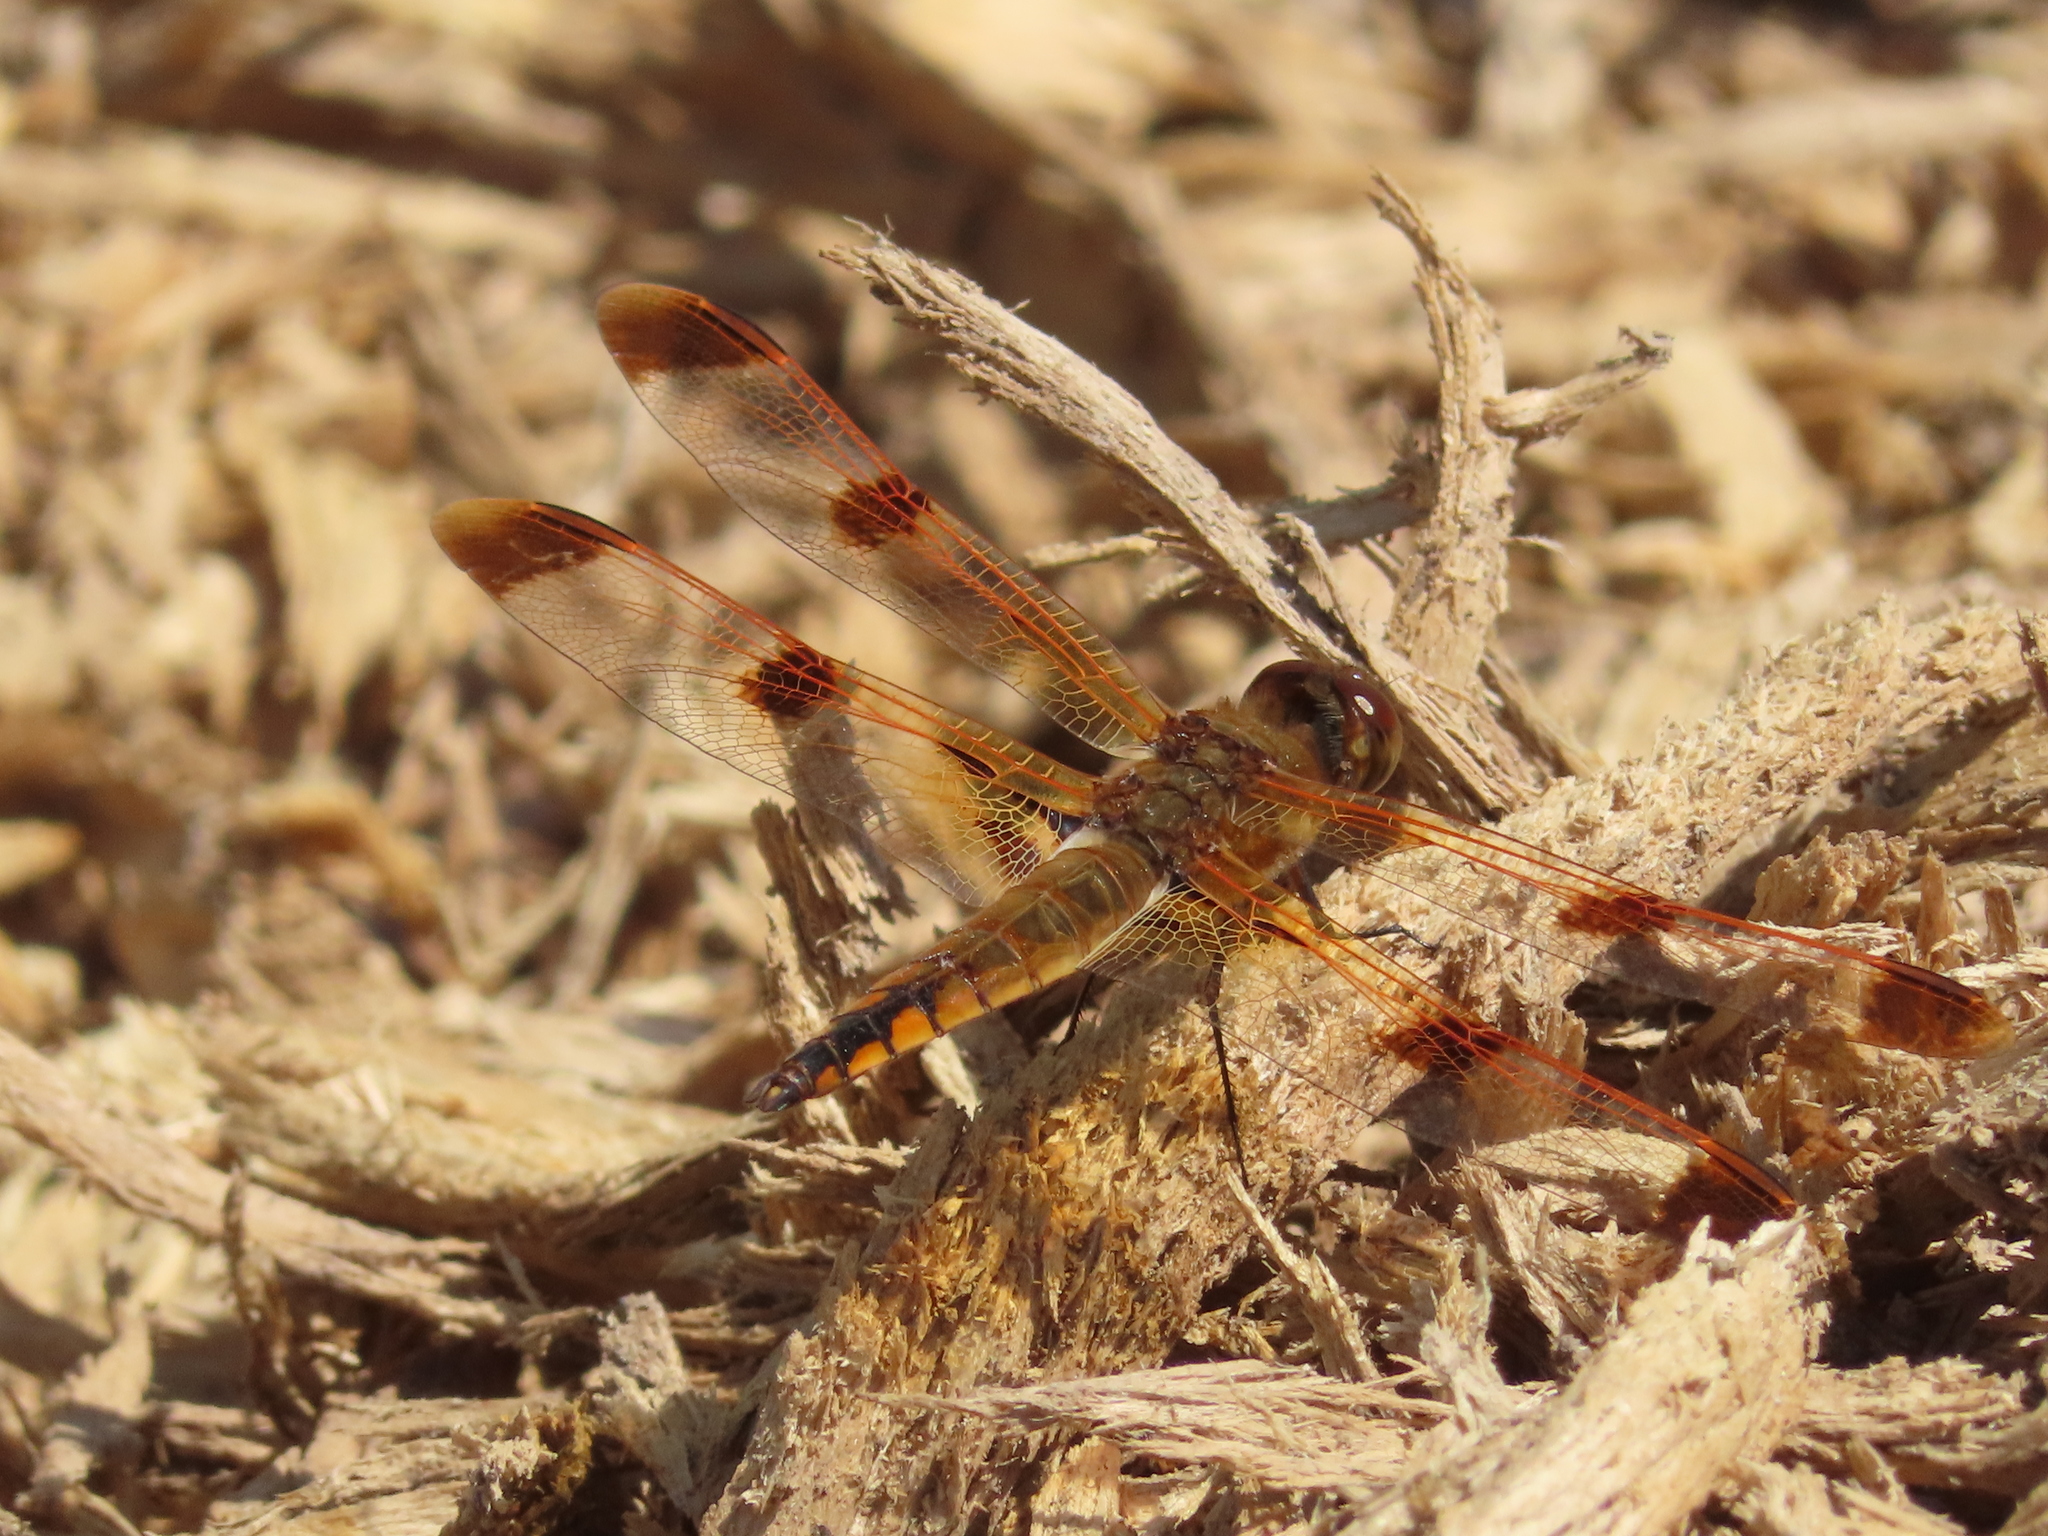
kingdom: Animalia
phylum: Arthropoda
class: Insecta
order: Odonata
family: Libellulidae
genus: Libellula
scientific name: Libellula semifasciata
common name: Painted skimmer
